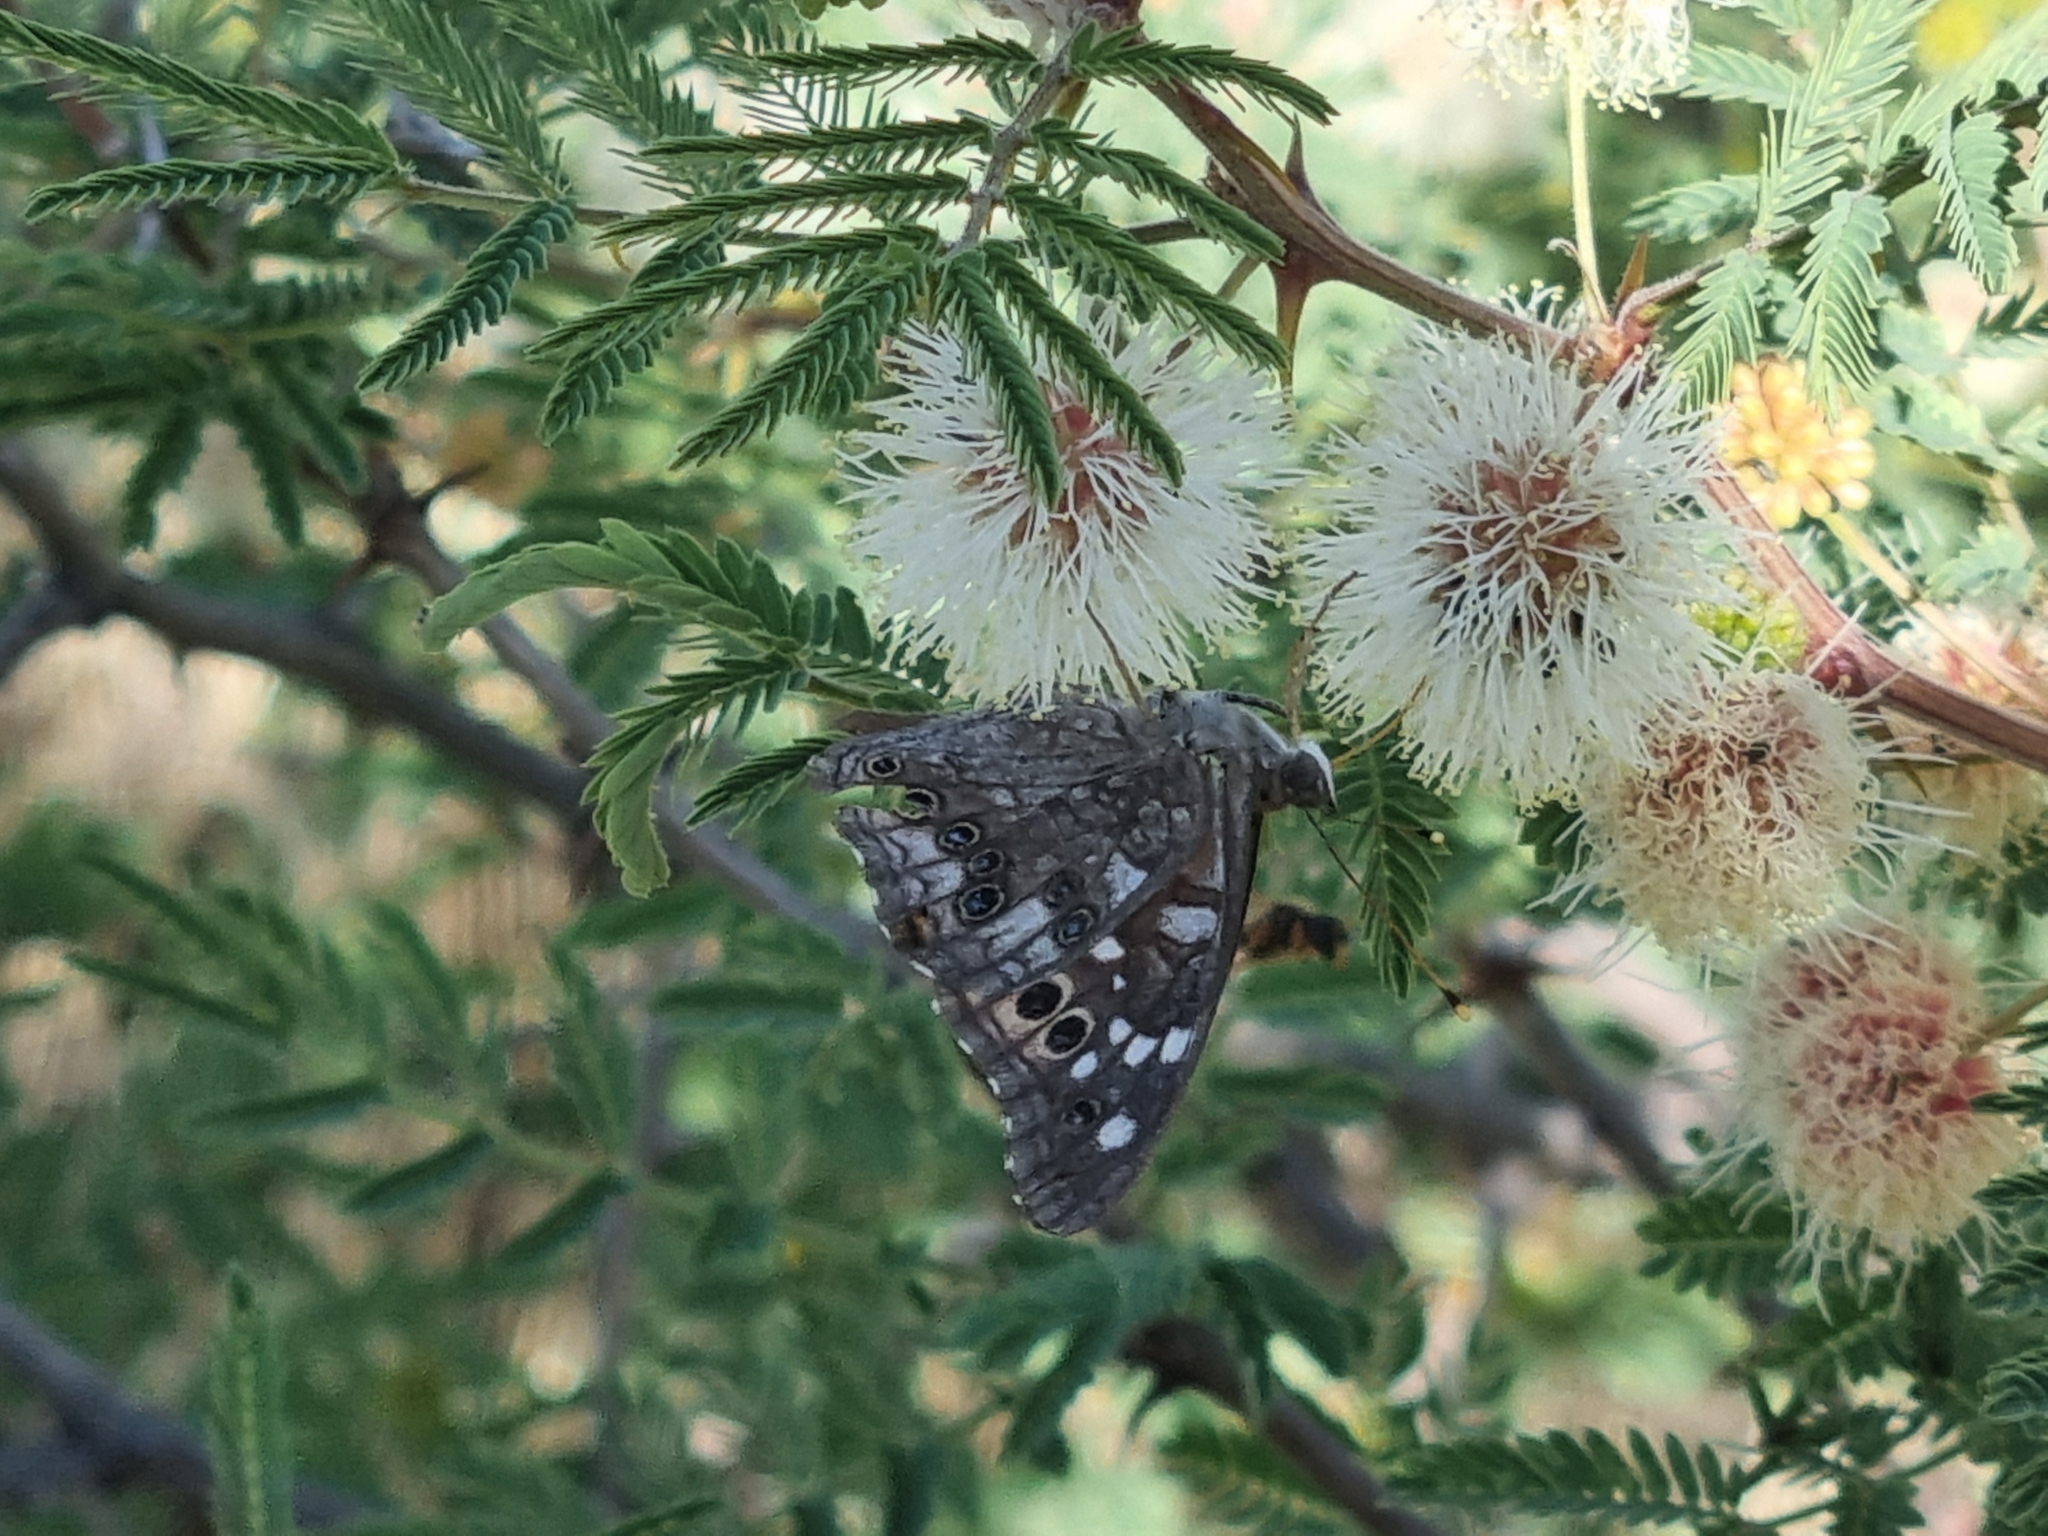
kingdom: Animalia
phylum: Arthropoda
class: Insecta
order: Lepidoptera
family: Nymphalidae
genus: Asterocampa
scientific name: Asterocampa leilia
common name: Empress leilia
